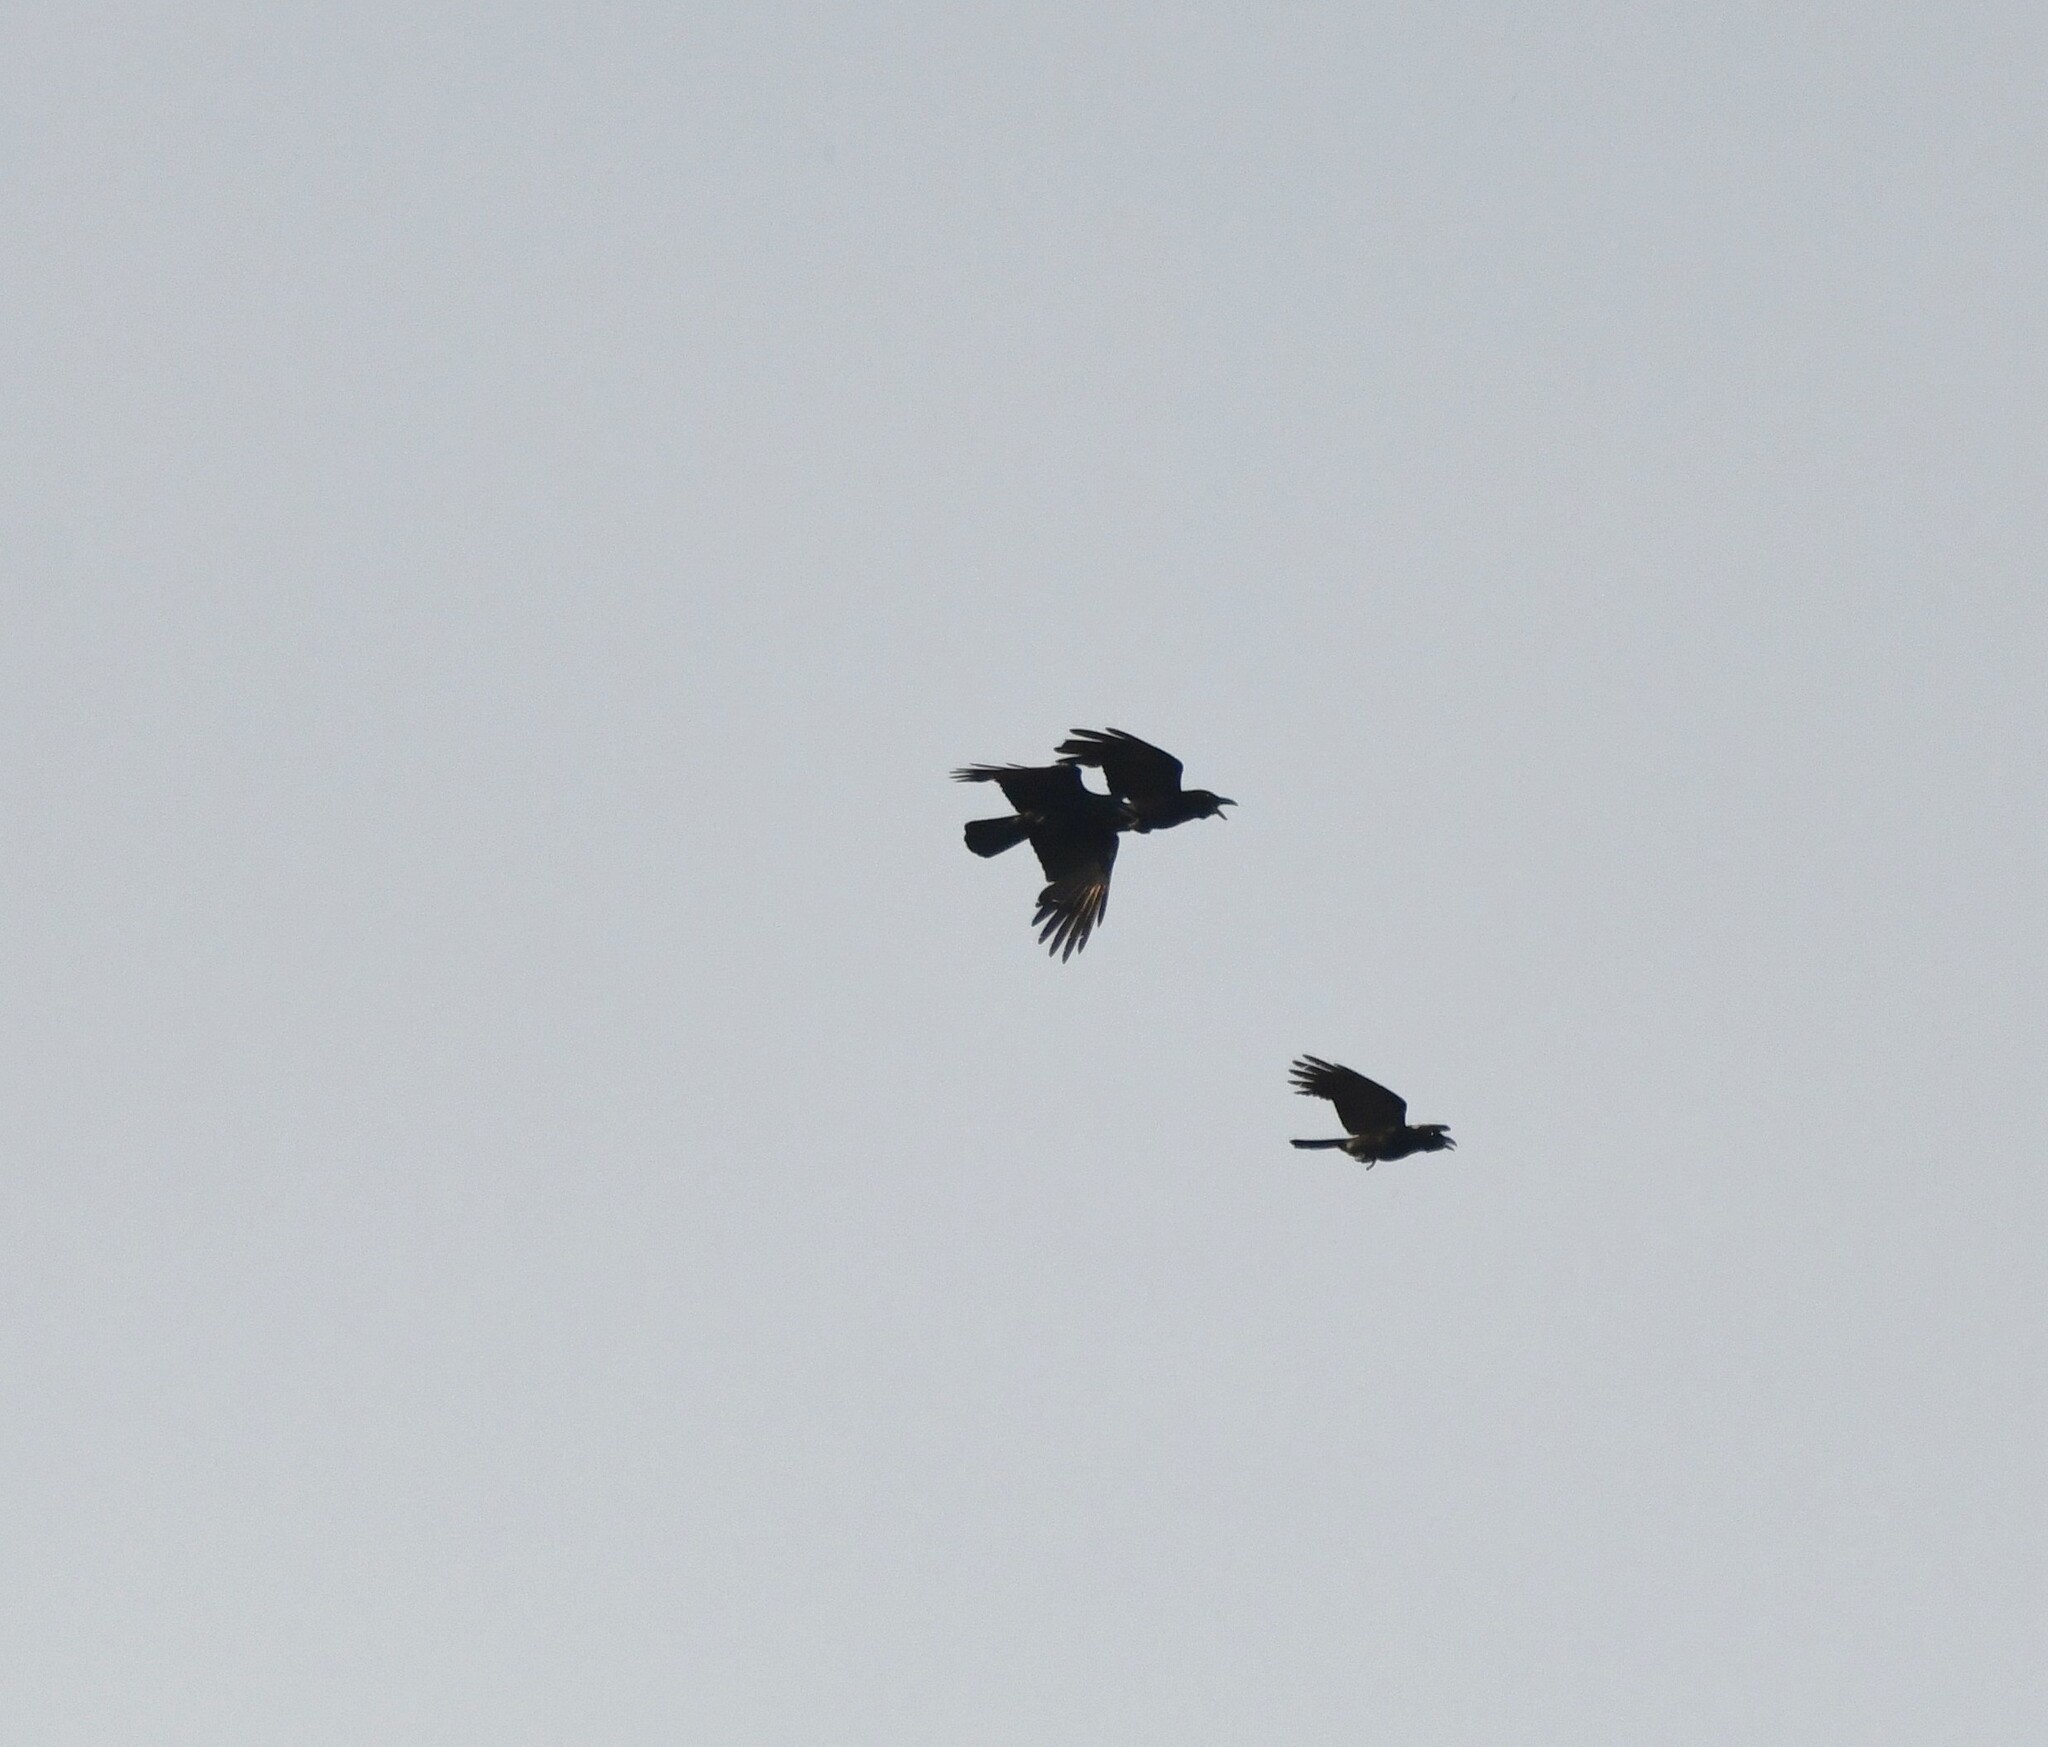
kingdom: Animalia
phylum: Chordata
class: Aves
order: Passeriformes
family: Corvidae
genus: Corvus
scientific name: Corvus macrorhynchos
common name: Large-billed crow
